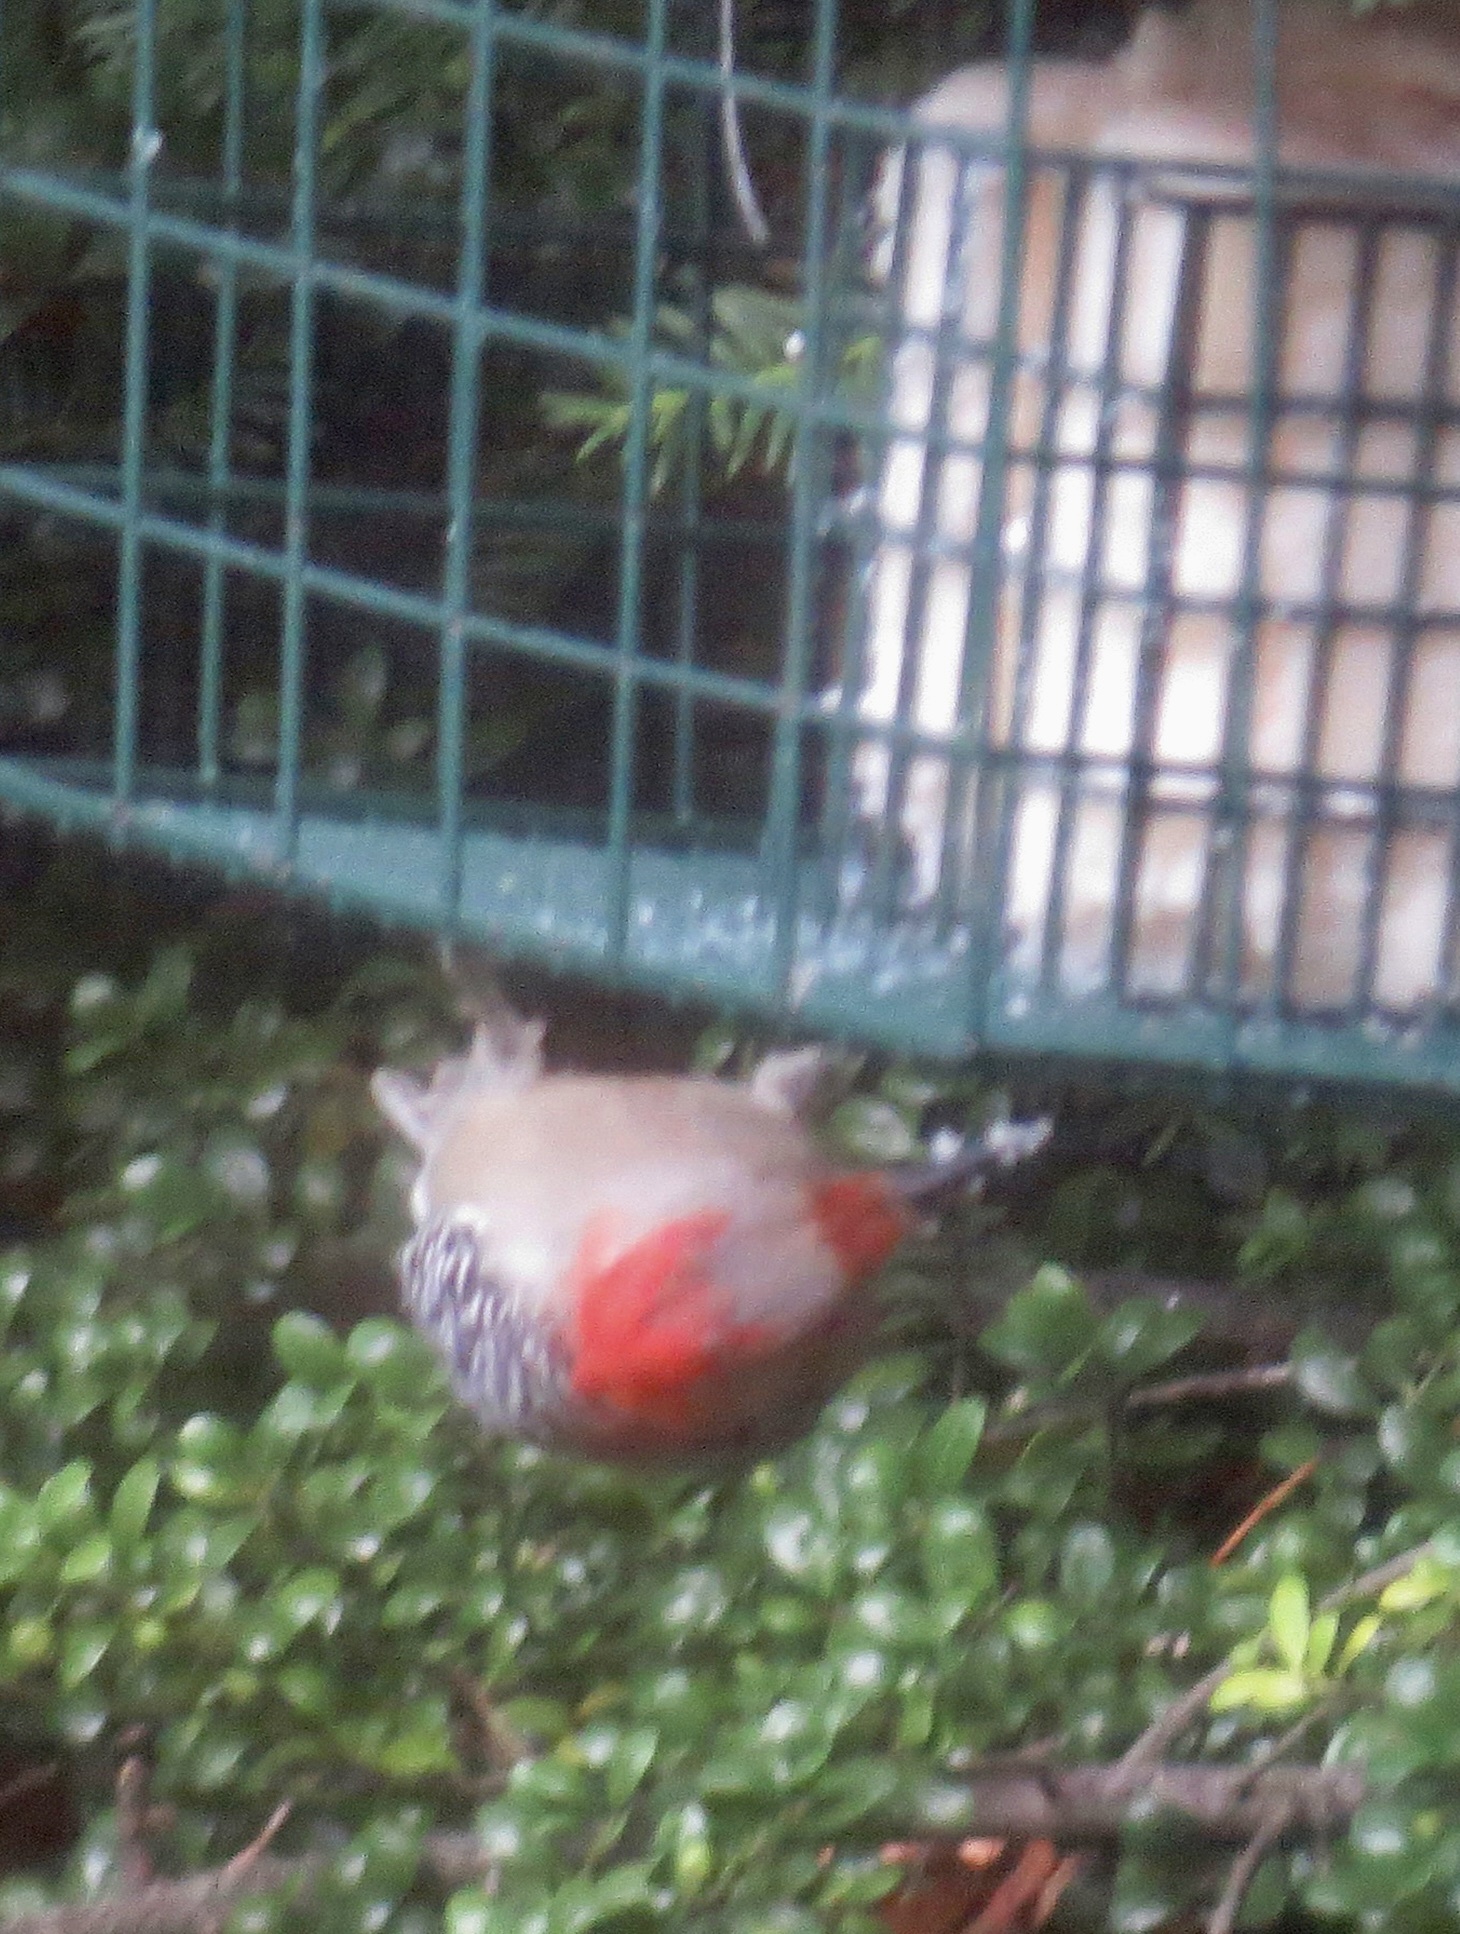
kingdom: Animalia
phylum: Chordata
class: Aves
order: Piciformes
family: Picidae
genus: Melanerpes
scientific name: Melanerpes carolinus
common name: Red-bellied woodpecker
